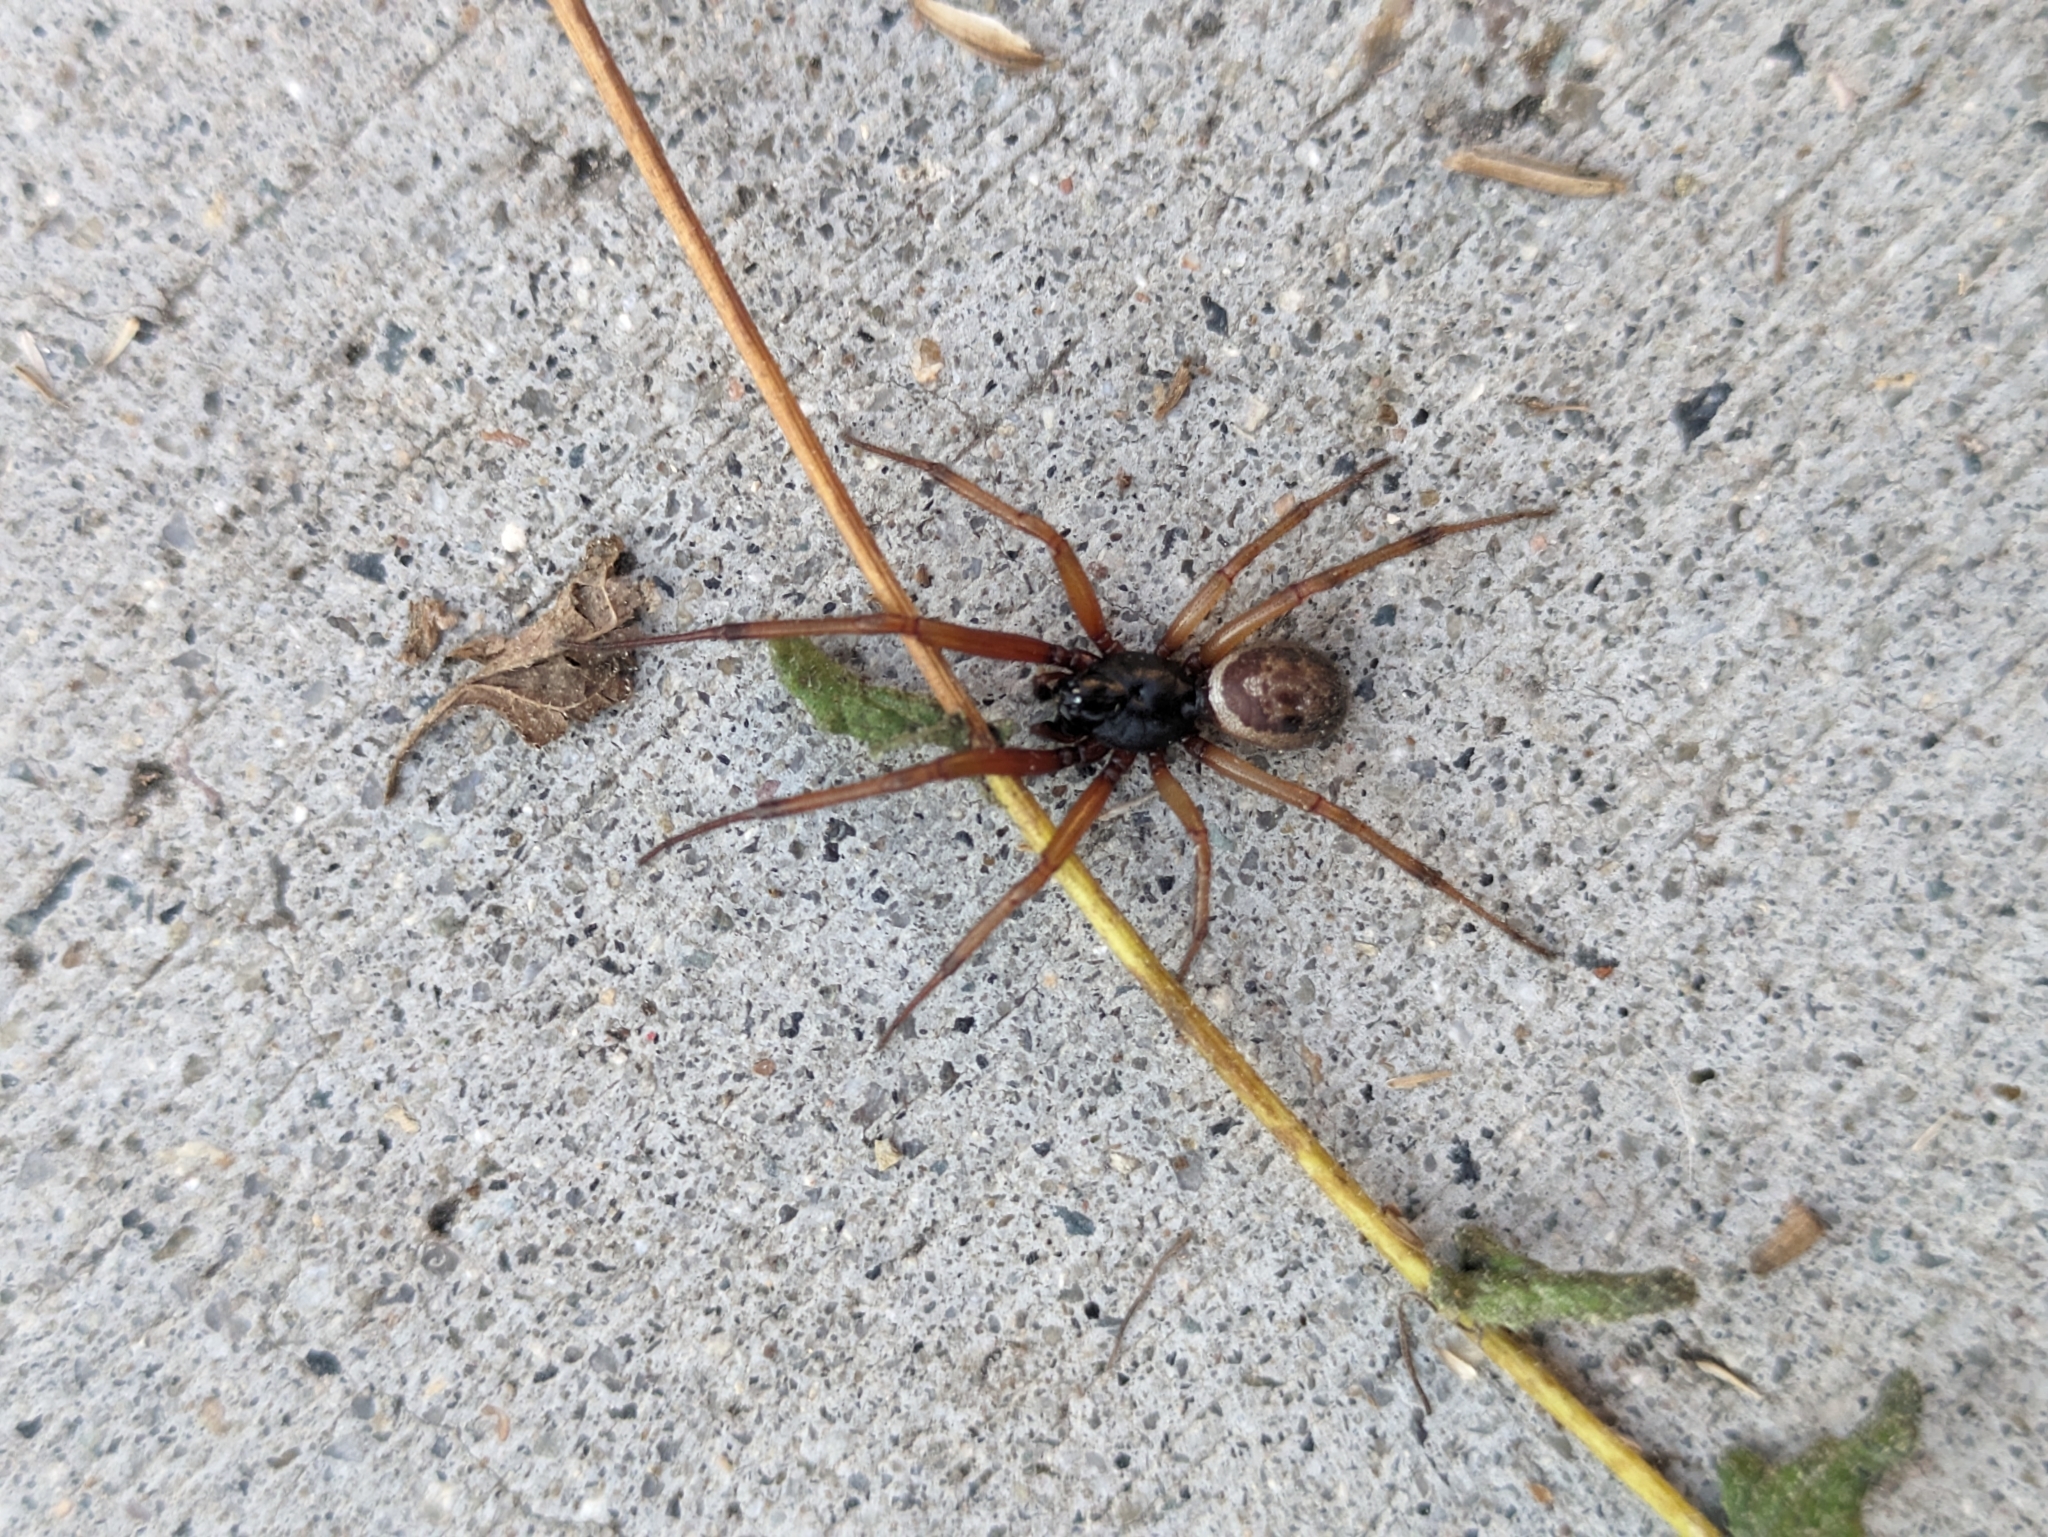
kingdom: Animalia
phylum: Arthropoda
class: Arachnida
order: Araneae
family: Theridiidae
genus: Steatoda
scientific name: Steatoda nobilis
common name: Cobweb weaver
